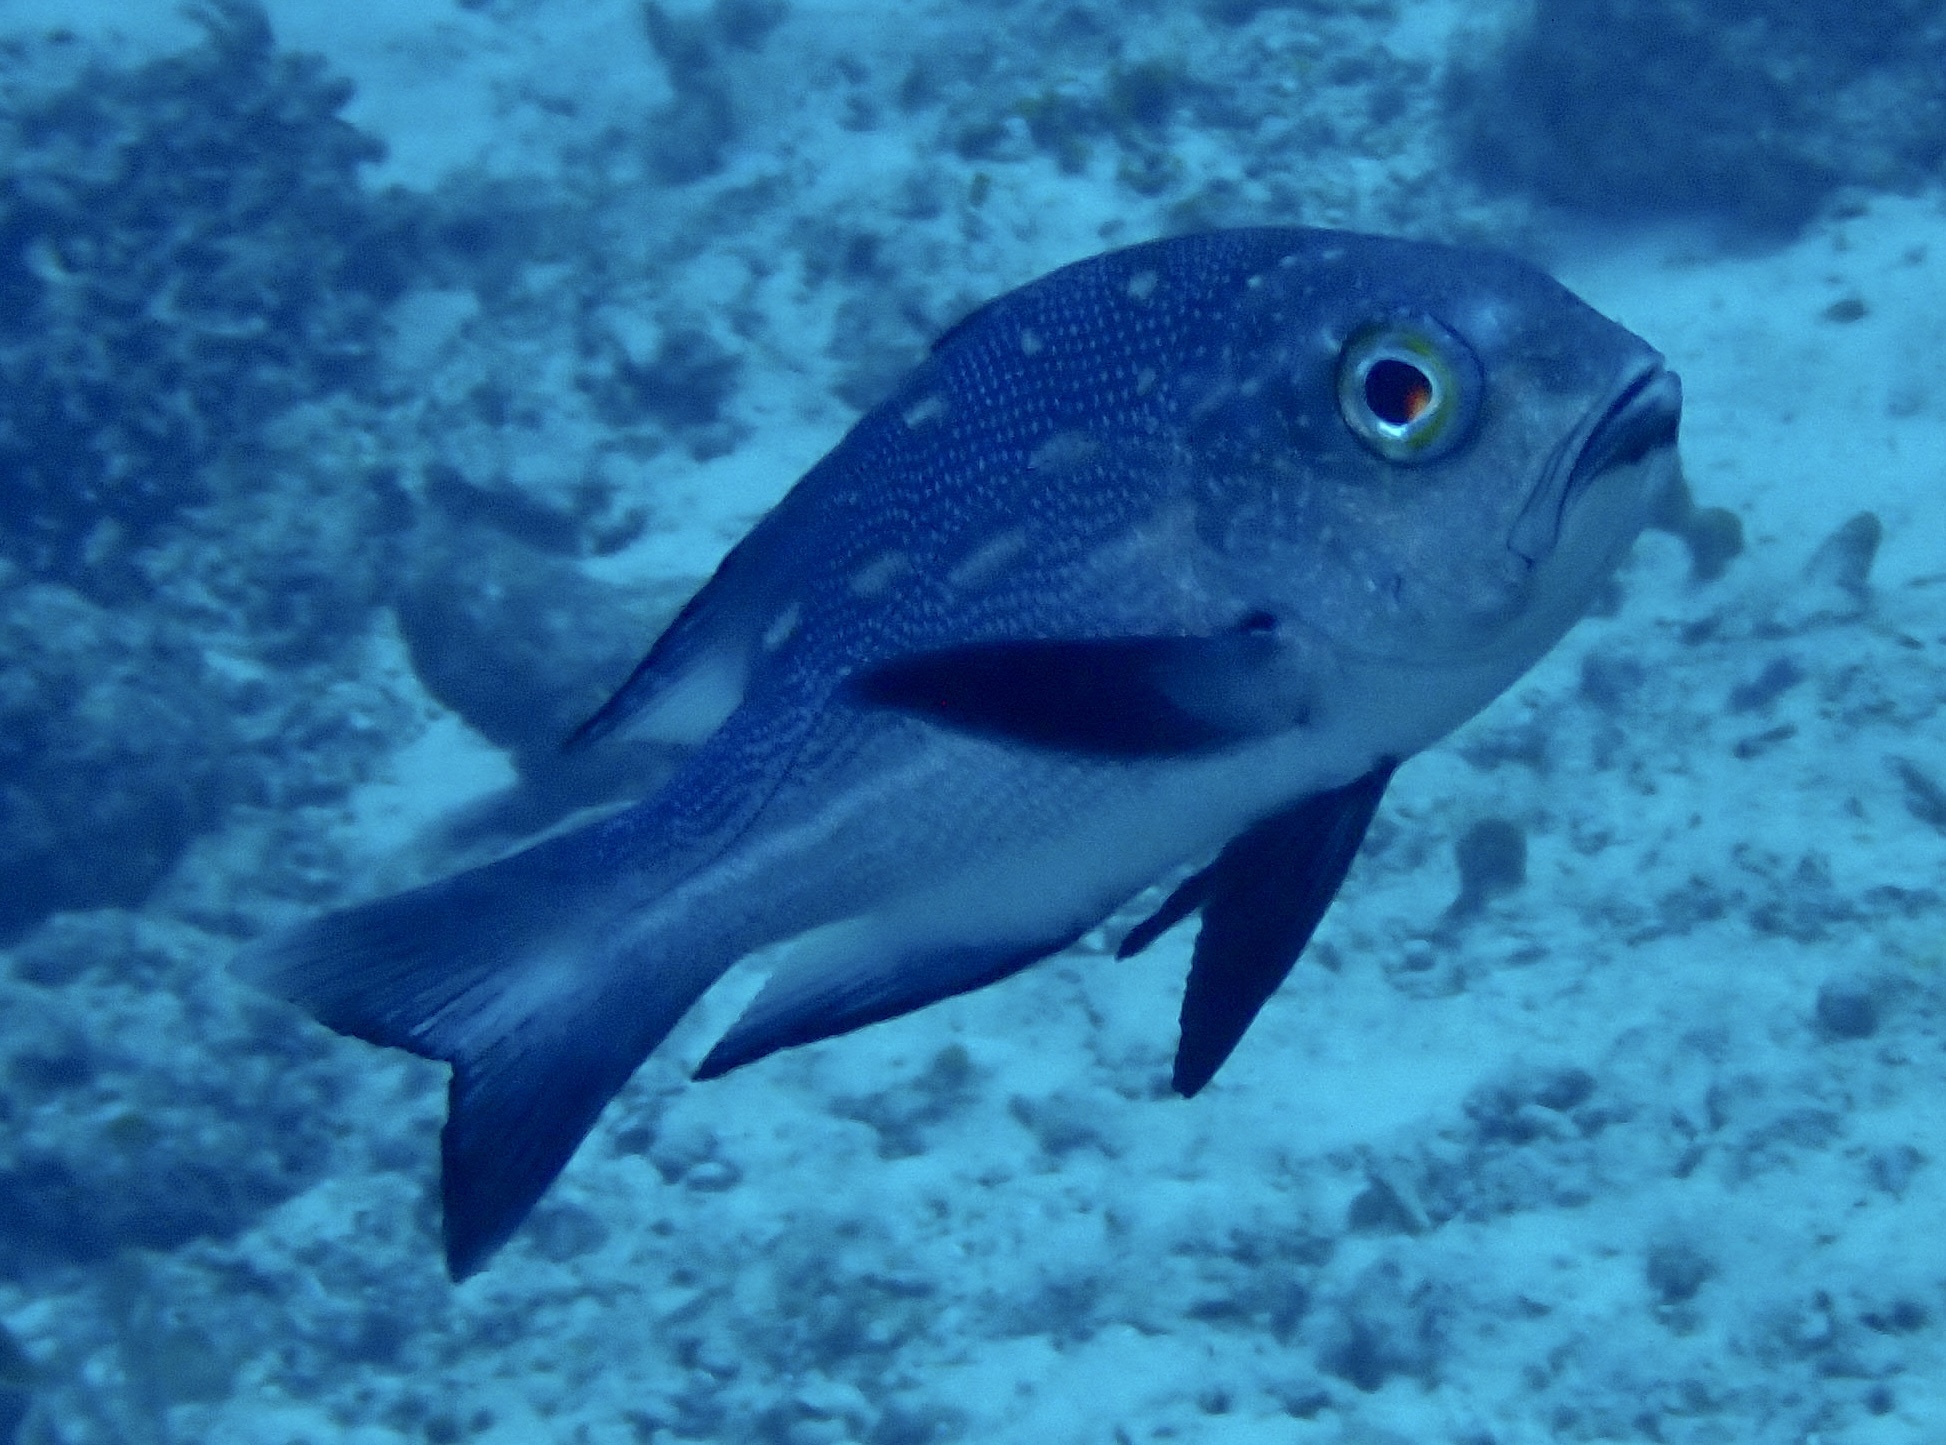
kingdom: Animalia
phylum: Chordata
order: Perciformes
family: Lutjanidae
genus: Macolor
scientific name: Macolor macularis
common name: Midnight snapper
